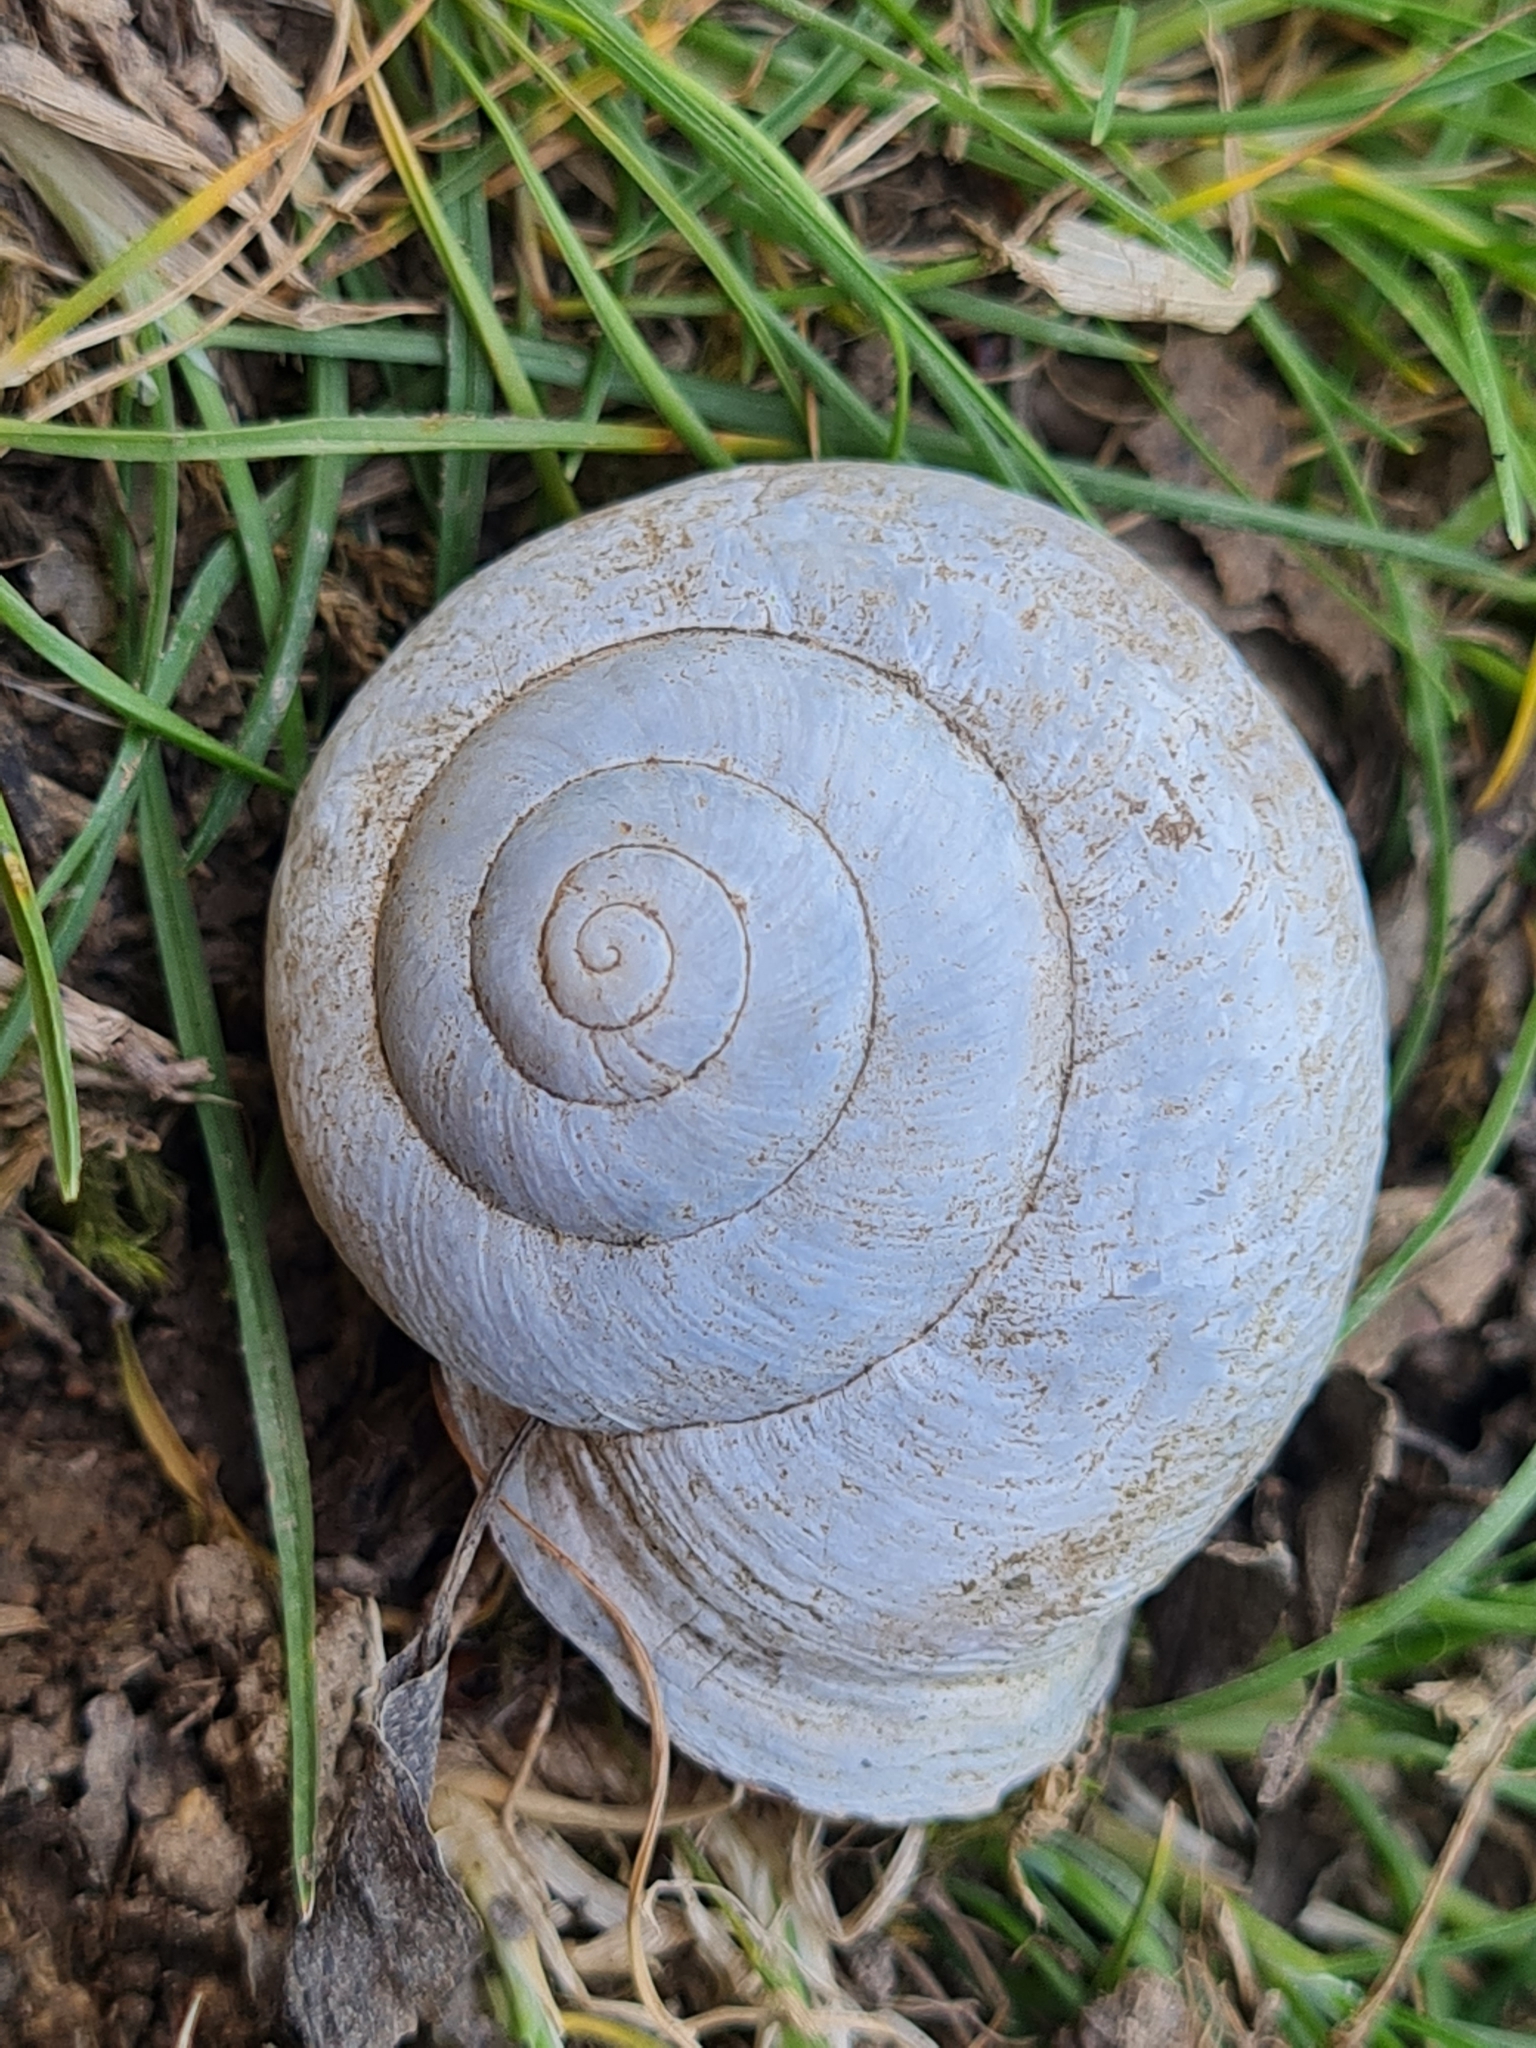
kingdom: Animalia
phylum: Mollusca
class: Gastropoda
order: Stylommatophora
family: Helicidae
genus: Caucasotachea
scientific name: Caucasotachea leucoranea
